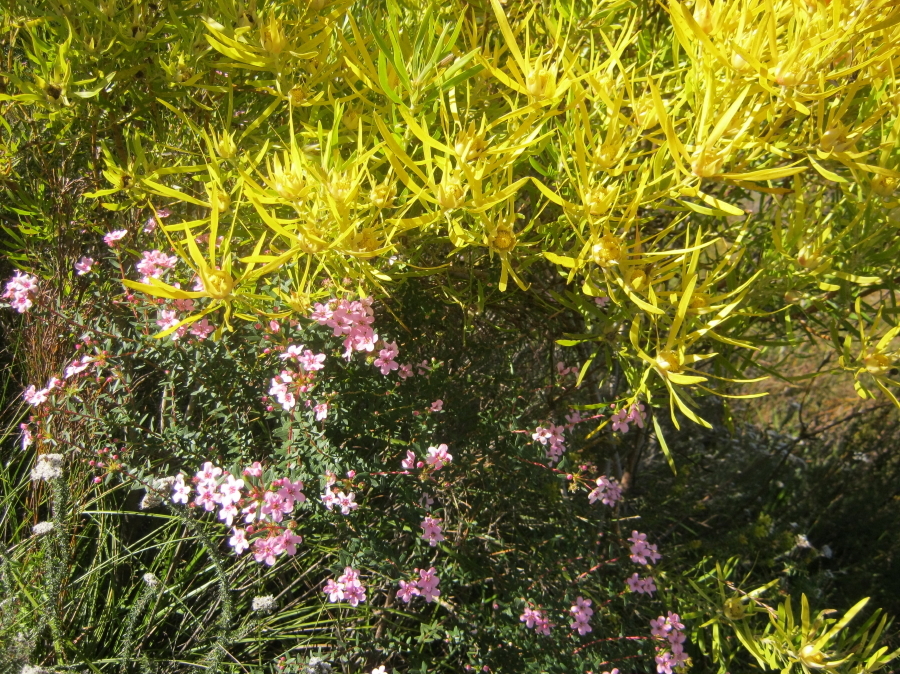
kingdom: Plantae
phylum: Tracheophyta
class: Magnoliopsida
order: Sapindales
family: Rutaceae
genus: Adenandra
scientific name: Adenandra fragrans
